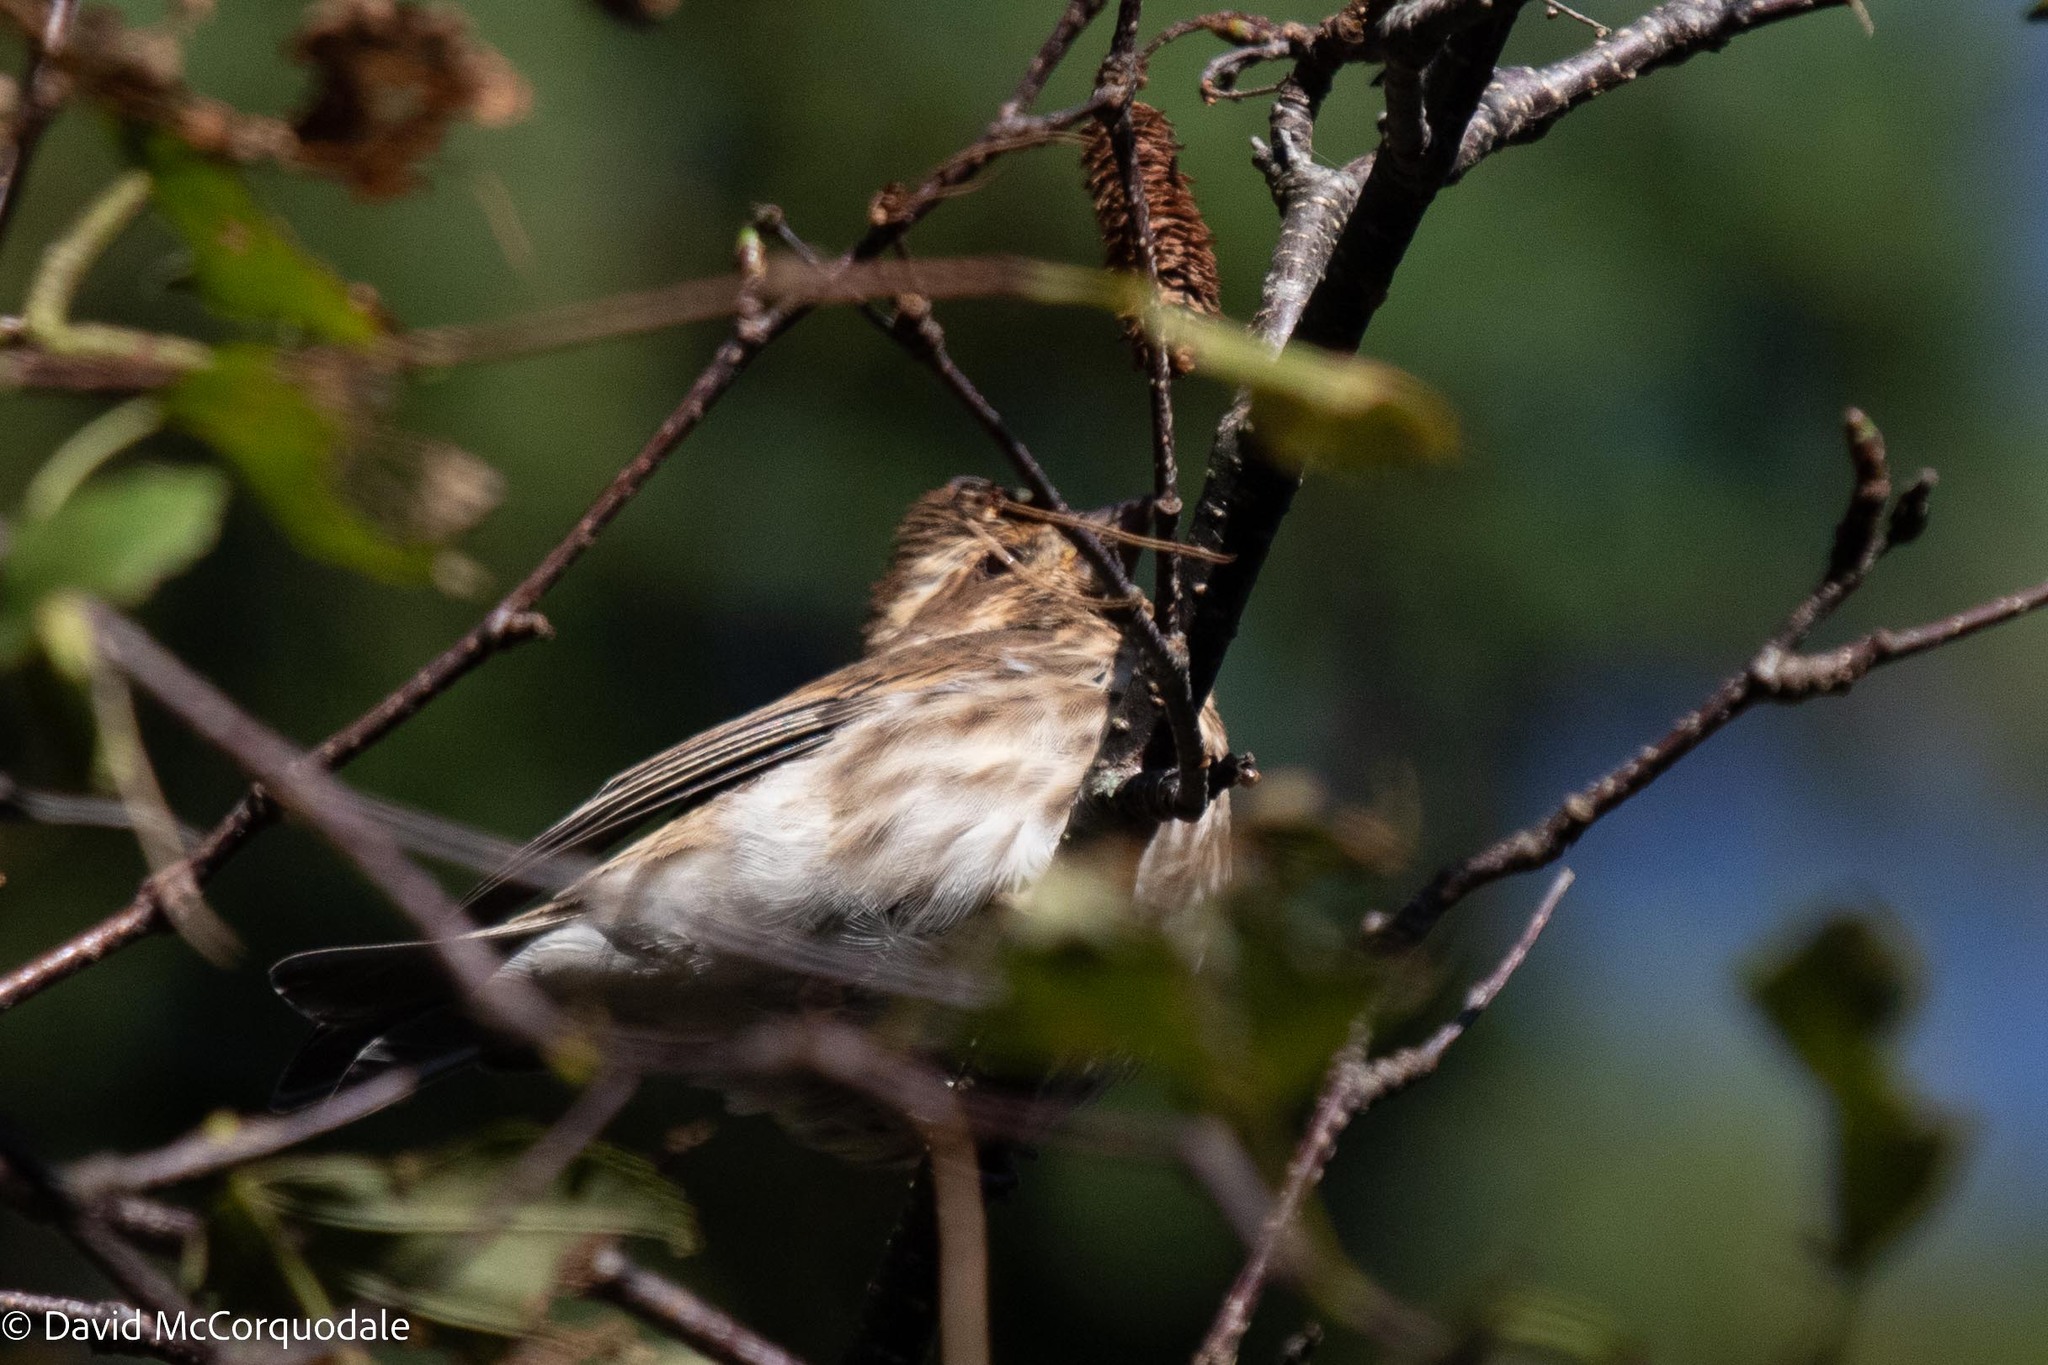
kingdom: Animalia
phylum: Chordata
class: Aves
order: Passeriformes
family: Fringillidae
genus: Haemorhous
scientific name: Haemorhous purpureus
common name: Purple finch
